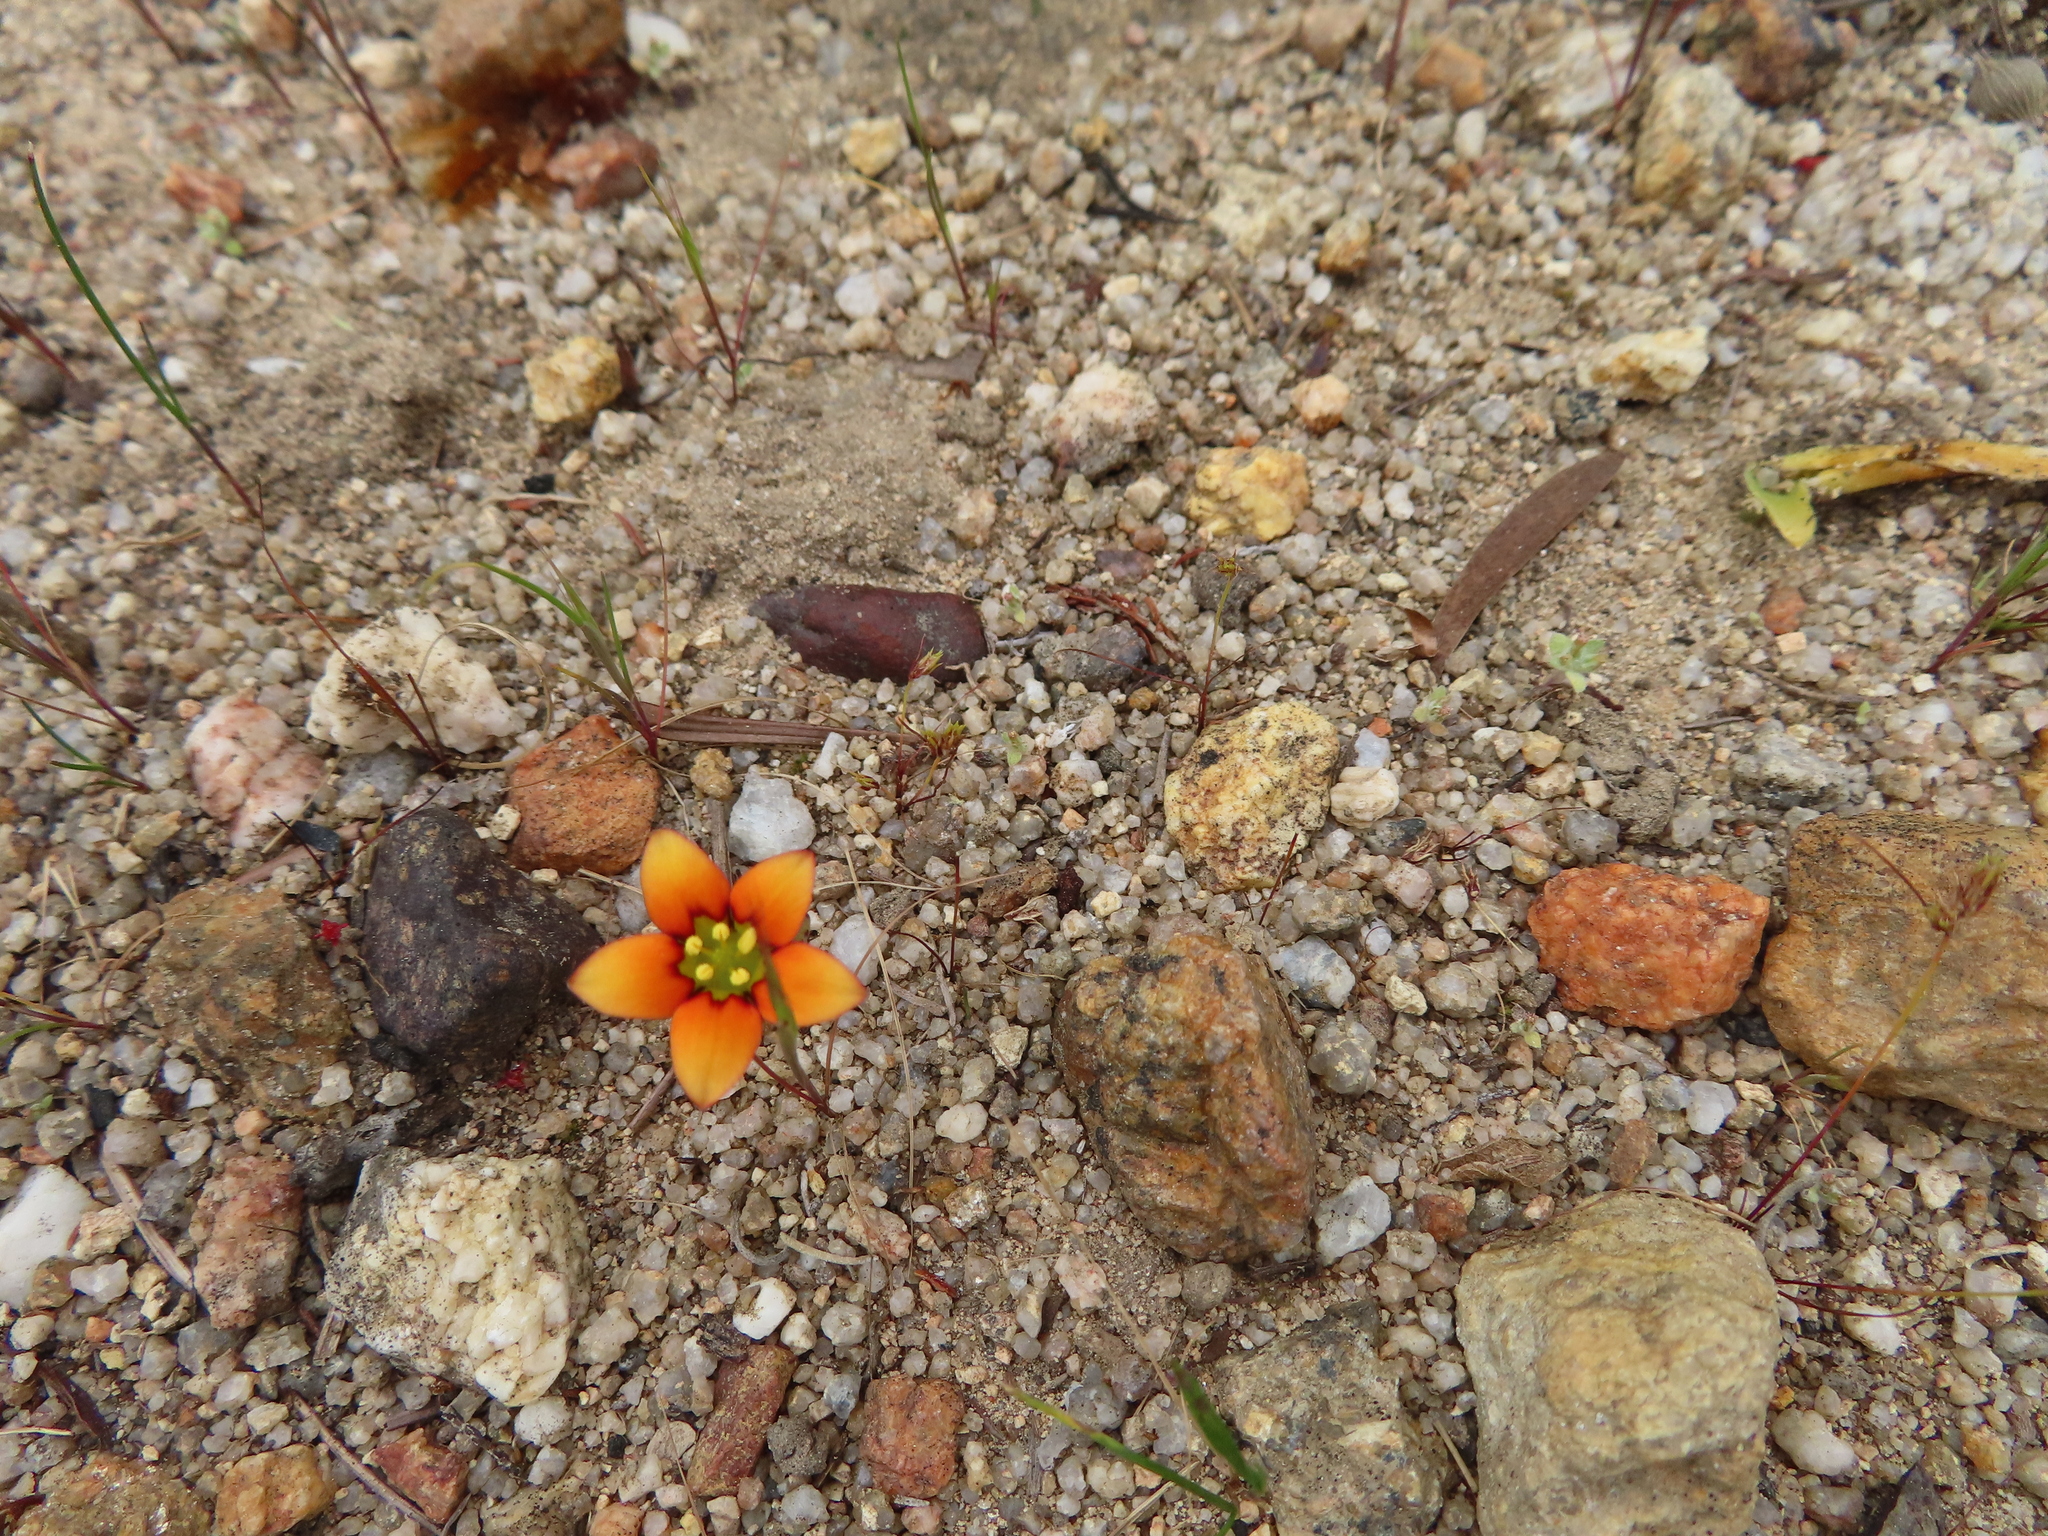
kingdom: Plantae
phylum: Tracheophyta
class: Magnoliopsida
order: Saxifragales
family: Crassulaceae
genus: Crassula
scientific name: Crassula dichotoma
